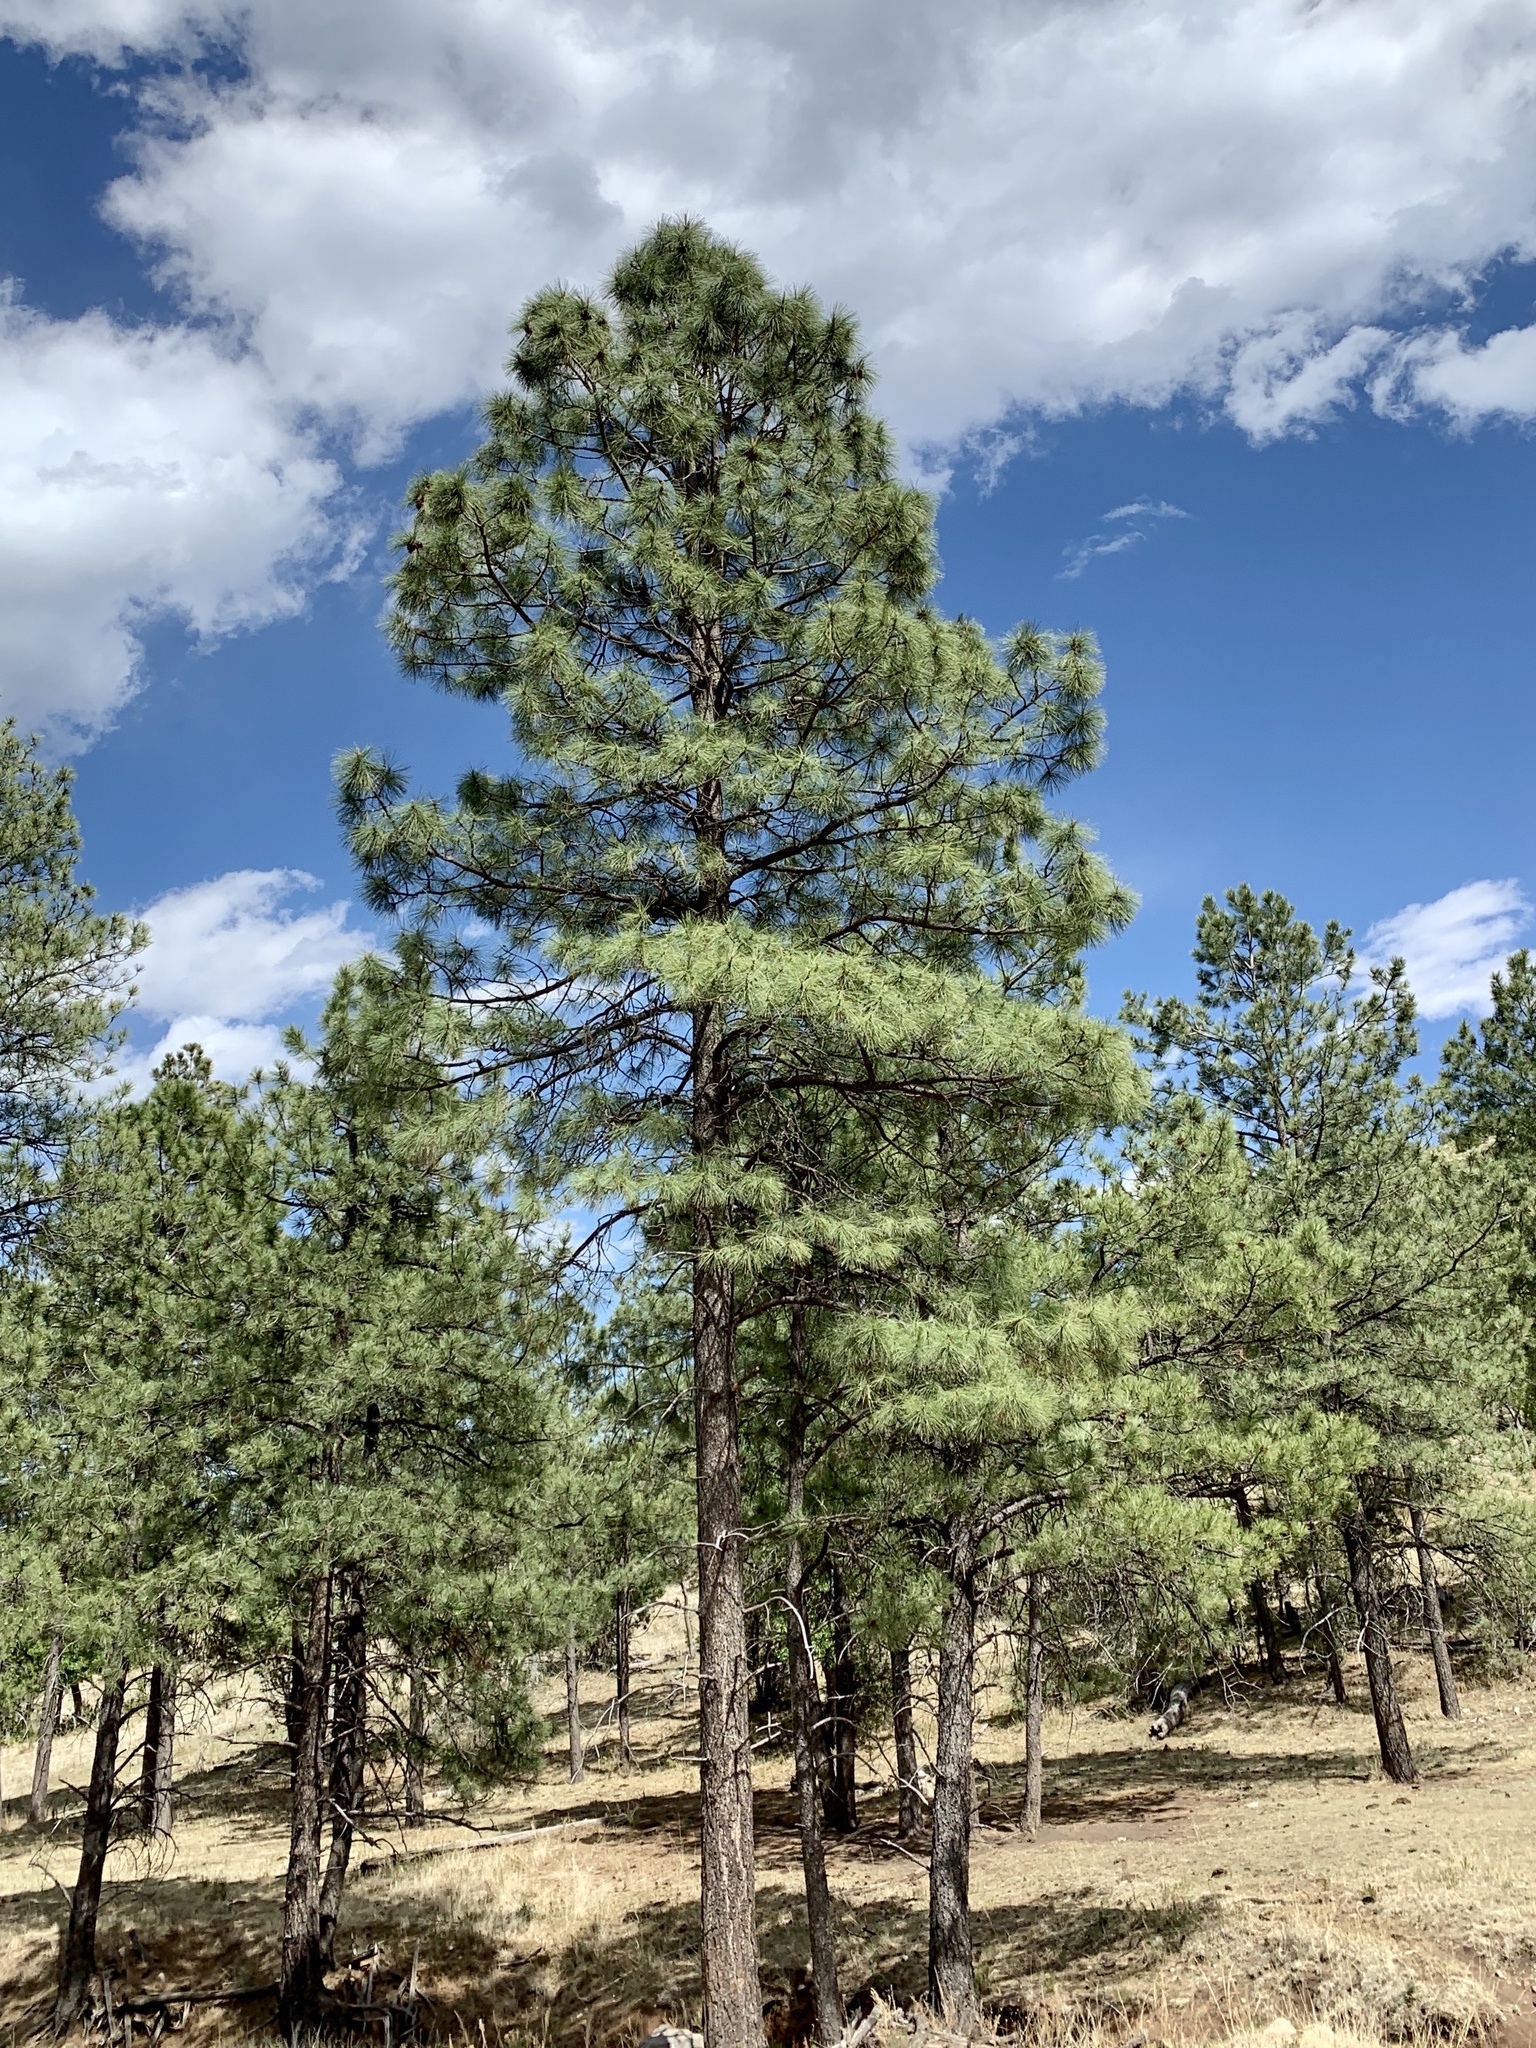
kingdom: Plantae
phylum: Tracheophyta
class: Pinopsida
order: Pinales
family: Pinaceae
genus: Pinus
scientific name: Pinus ponderosa
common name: Western yellow-pine
